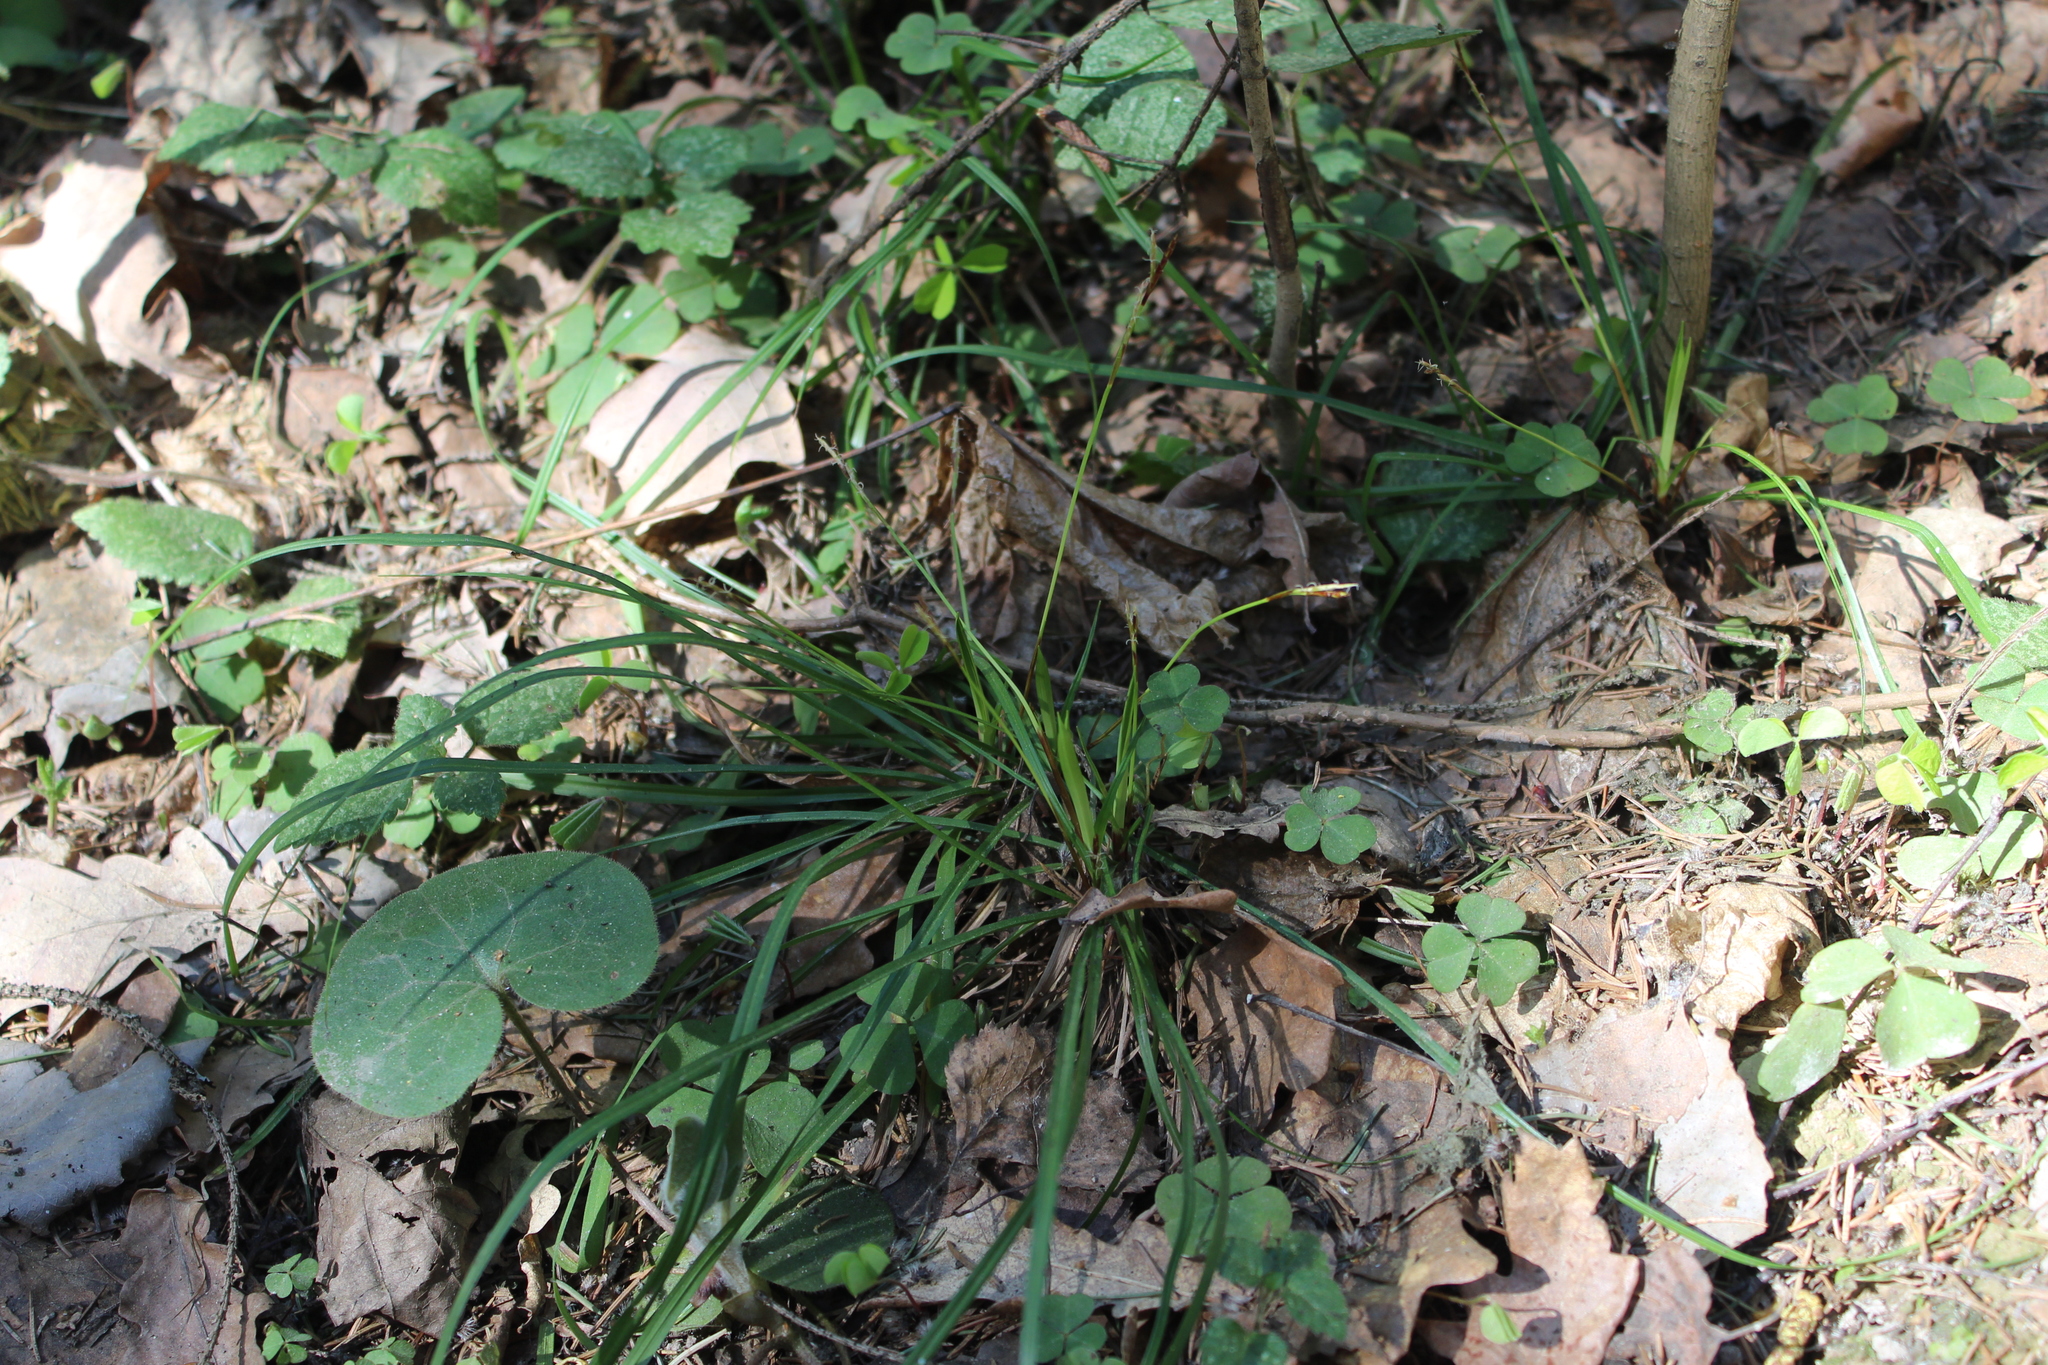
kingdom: Plantae
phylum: Tracheophyta
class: Liliopsida
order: Poales
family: Cyperaceae
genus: Carex
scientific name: Carex digitata
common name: Fingered sedge
